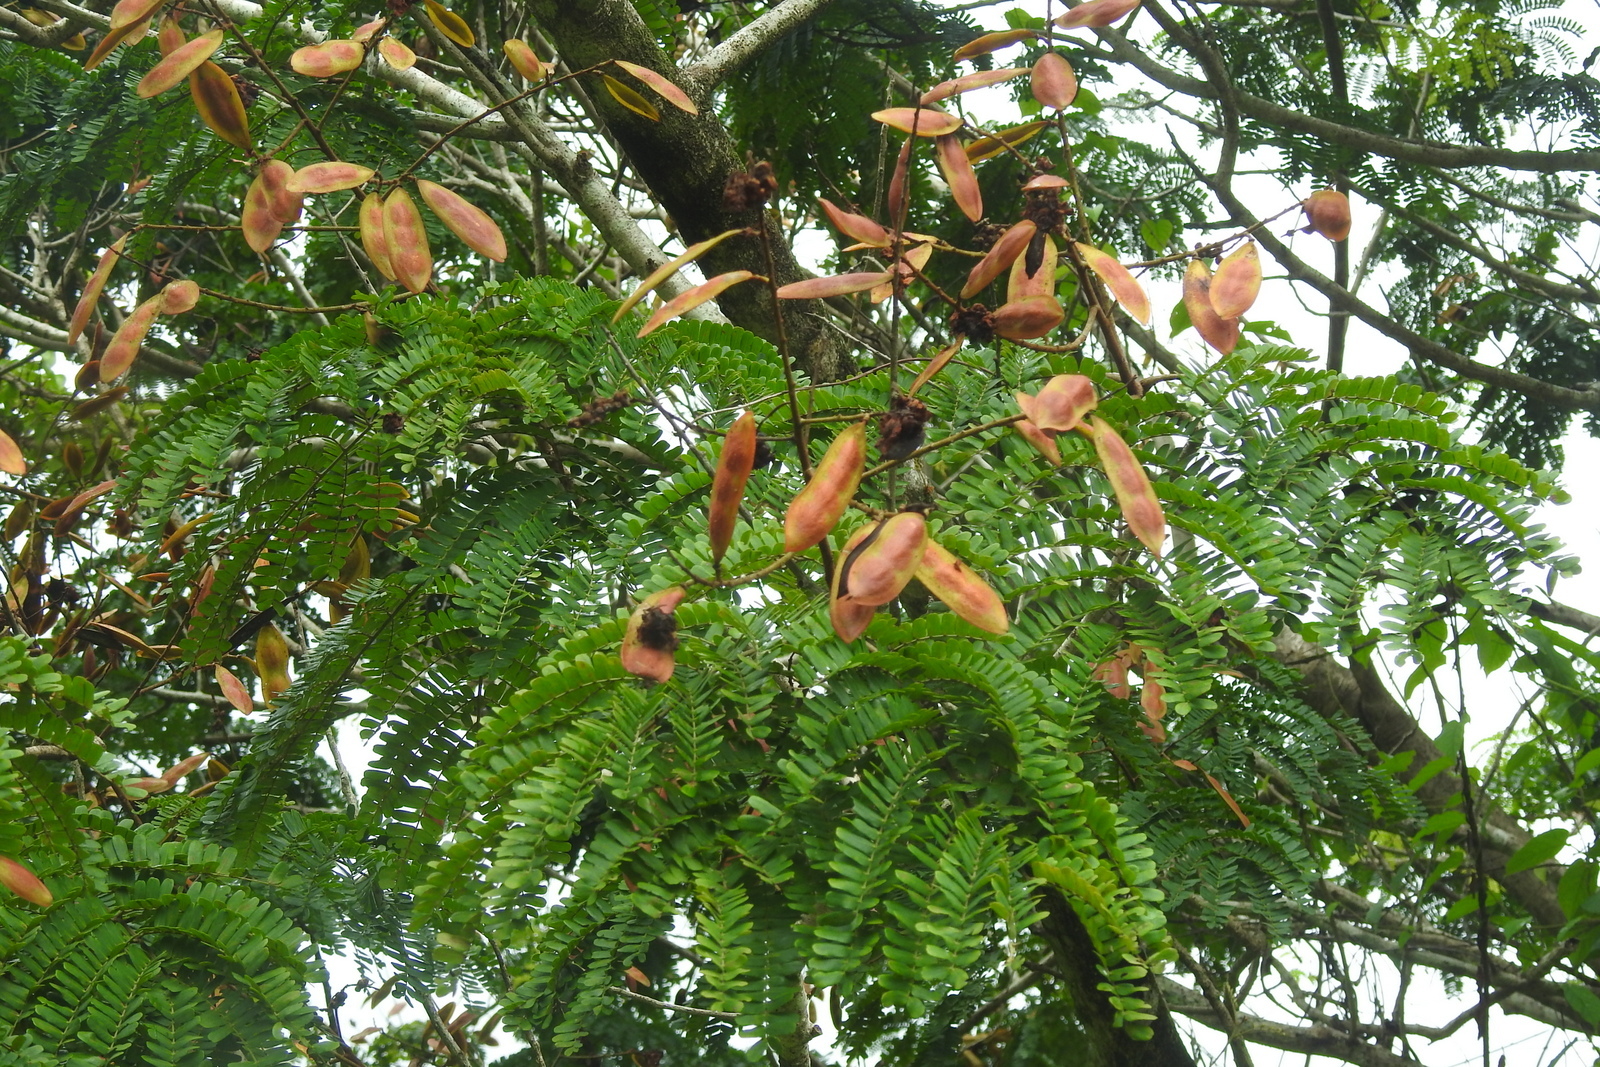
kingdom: Plantae
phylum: Tracheophyta
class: Magnoliopsida
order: Fabales
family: Fabaceae
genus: Peltophorum
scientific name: Peltophorum pterocarpum
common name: Yellow flame
